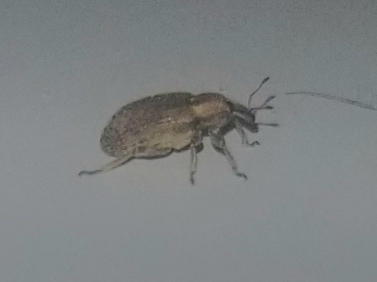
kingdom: Animalia
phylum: Arthropoda
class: Insecta
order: Coleoptera
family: Curculionidae
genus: Hypera
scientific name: Hypera postica
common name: Weevil
